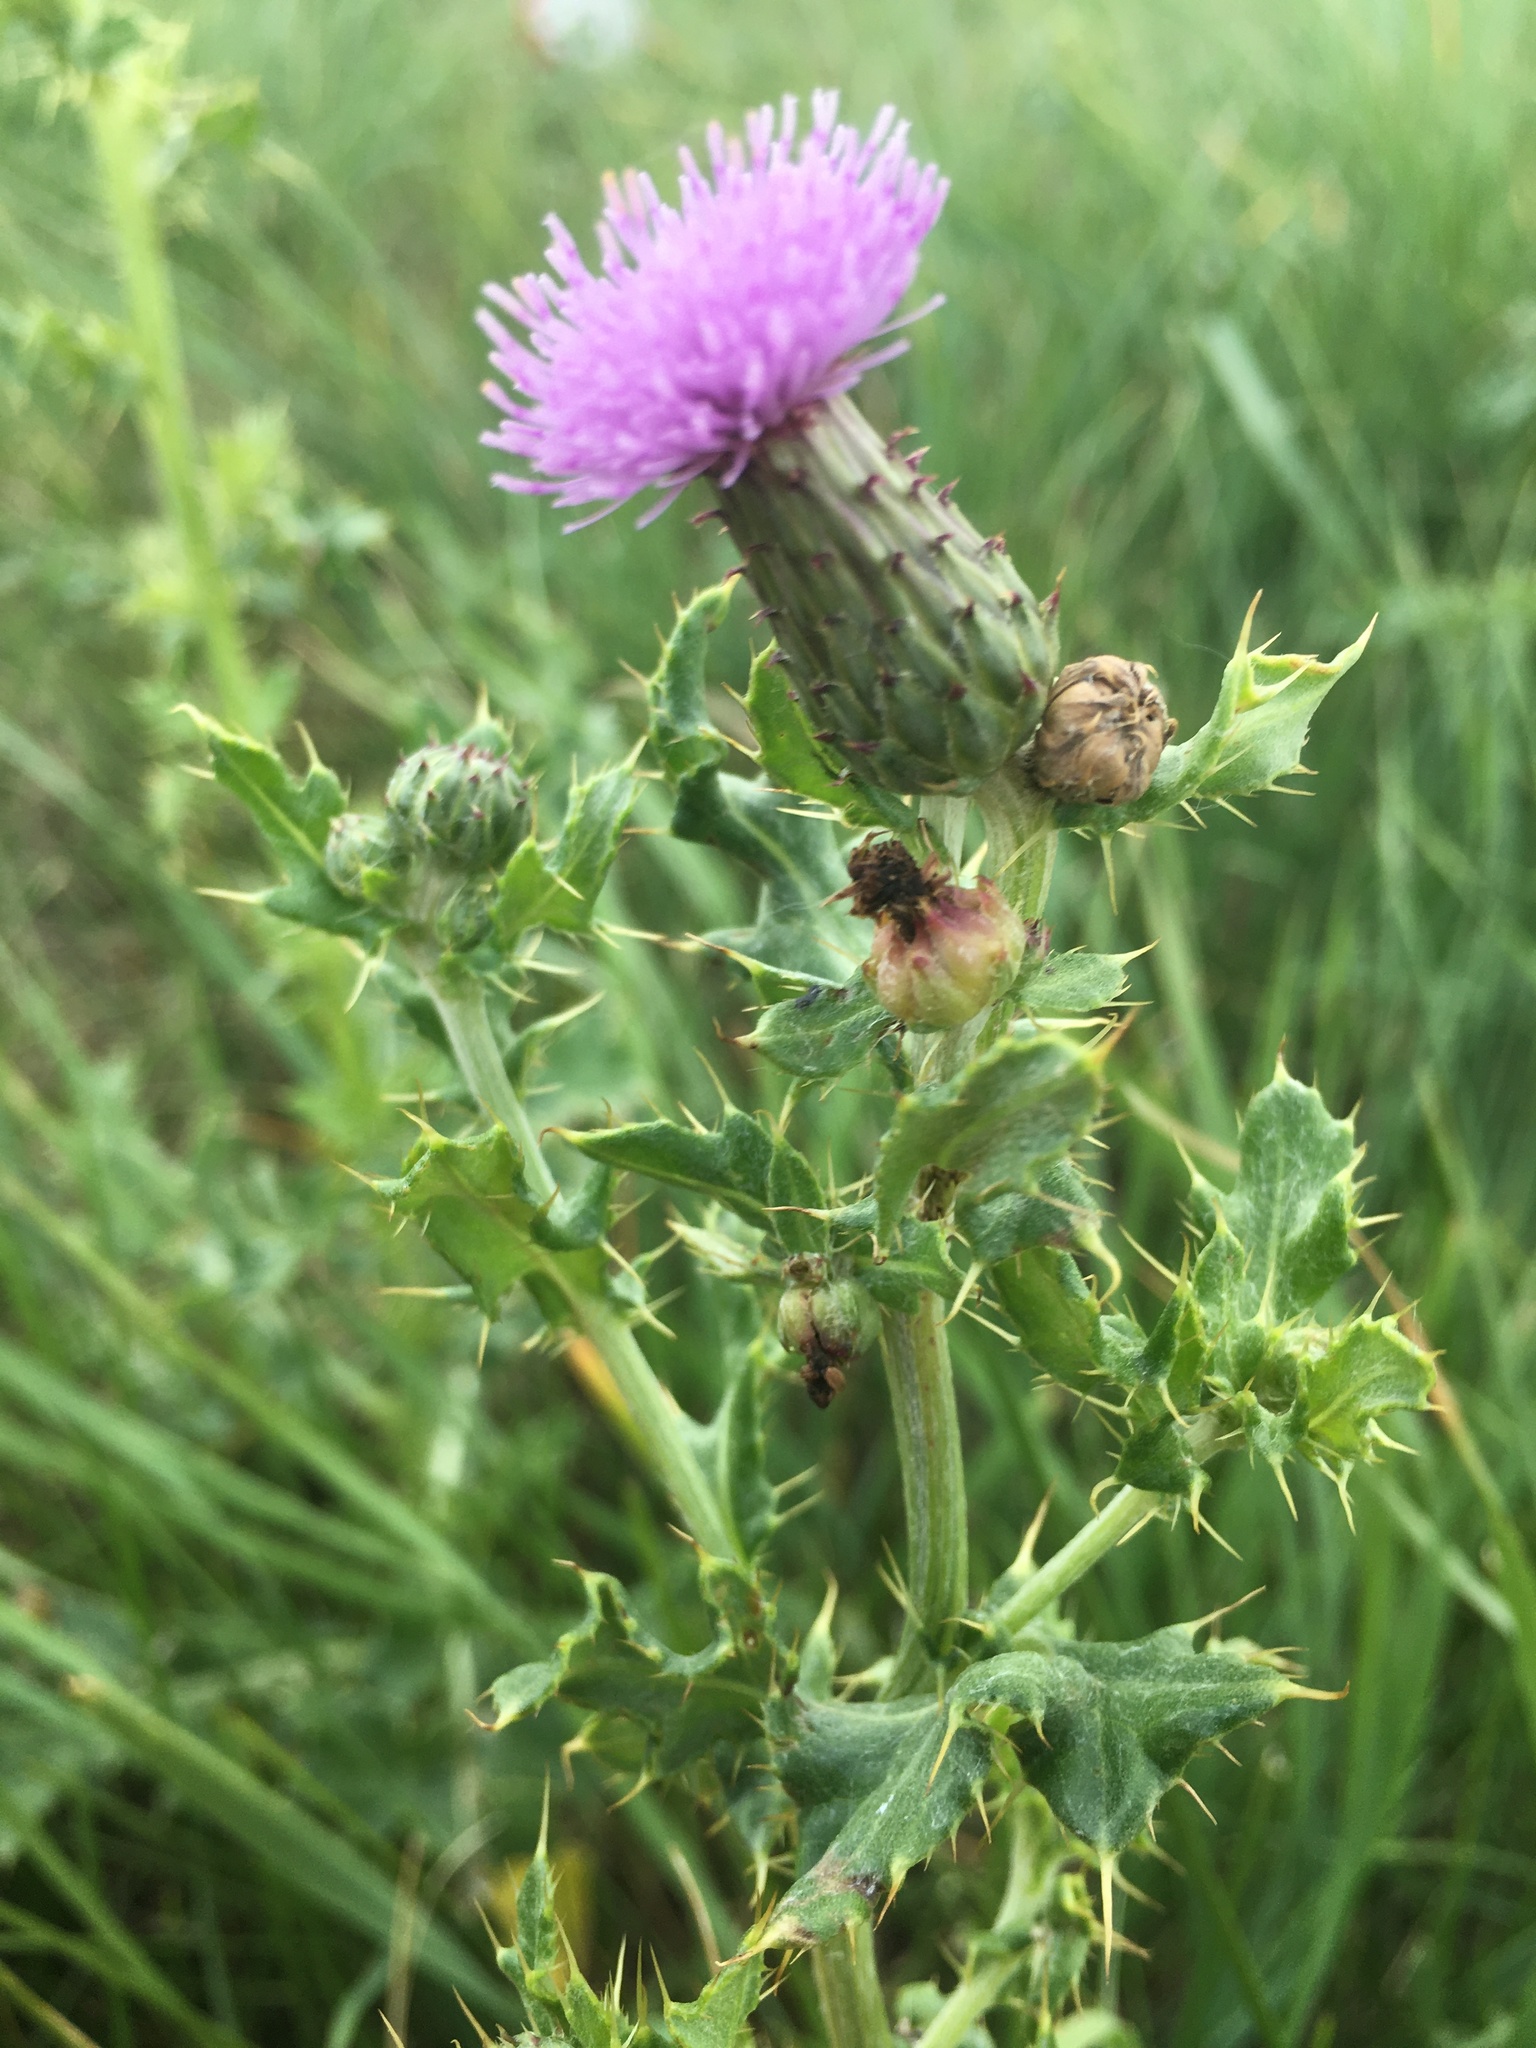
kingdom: Plantae
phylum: Tracheophyta
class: Magnoliopsida
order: Asterales
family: Asteraceae
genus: Cirsium
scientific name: Cirsium arvense
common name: Creeping thistle
